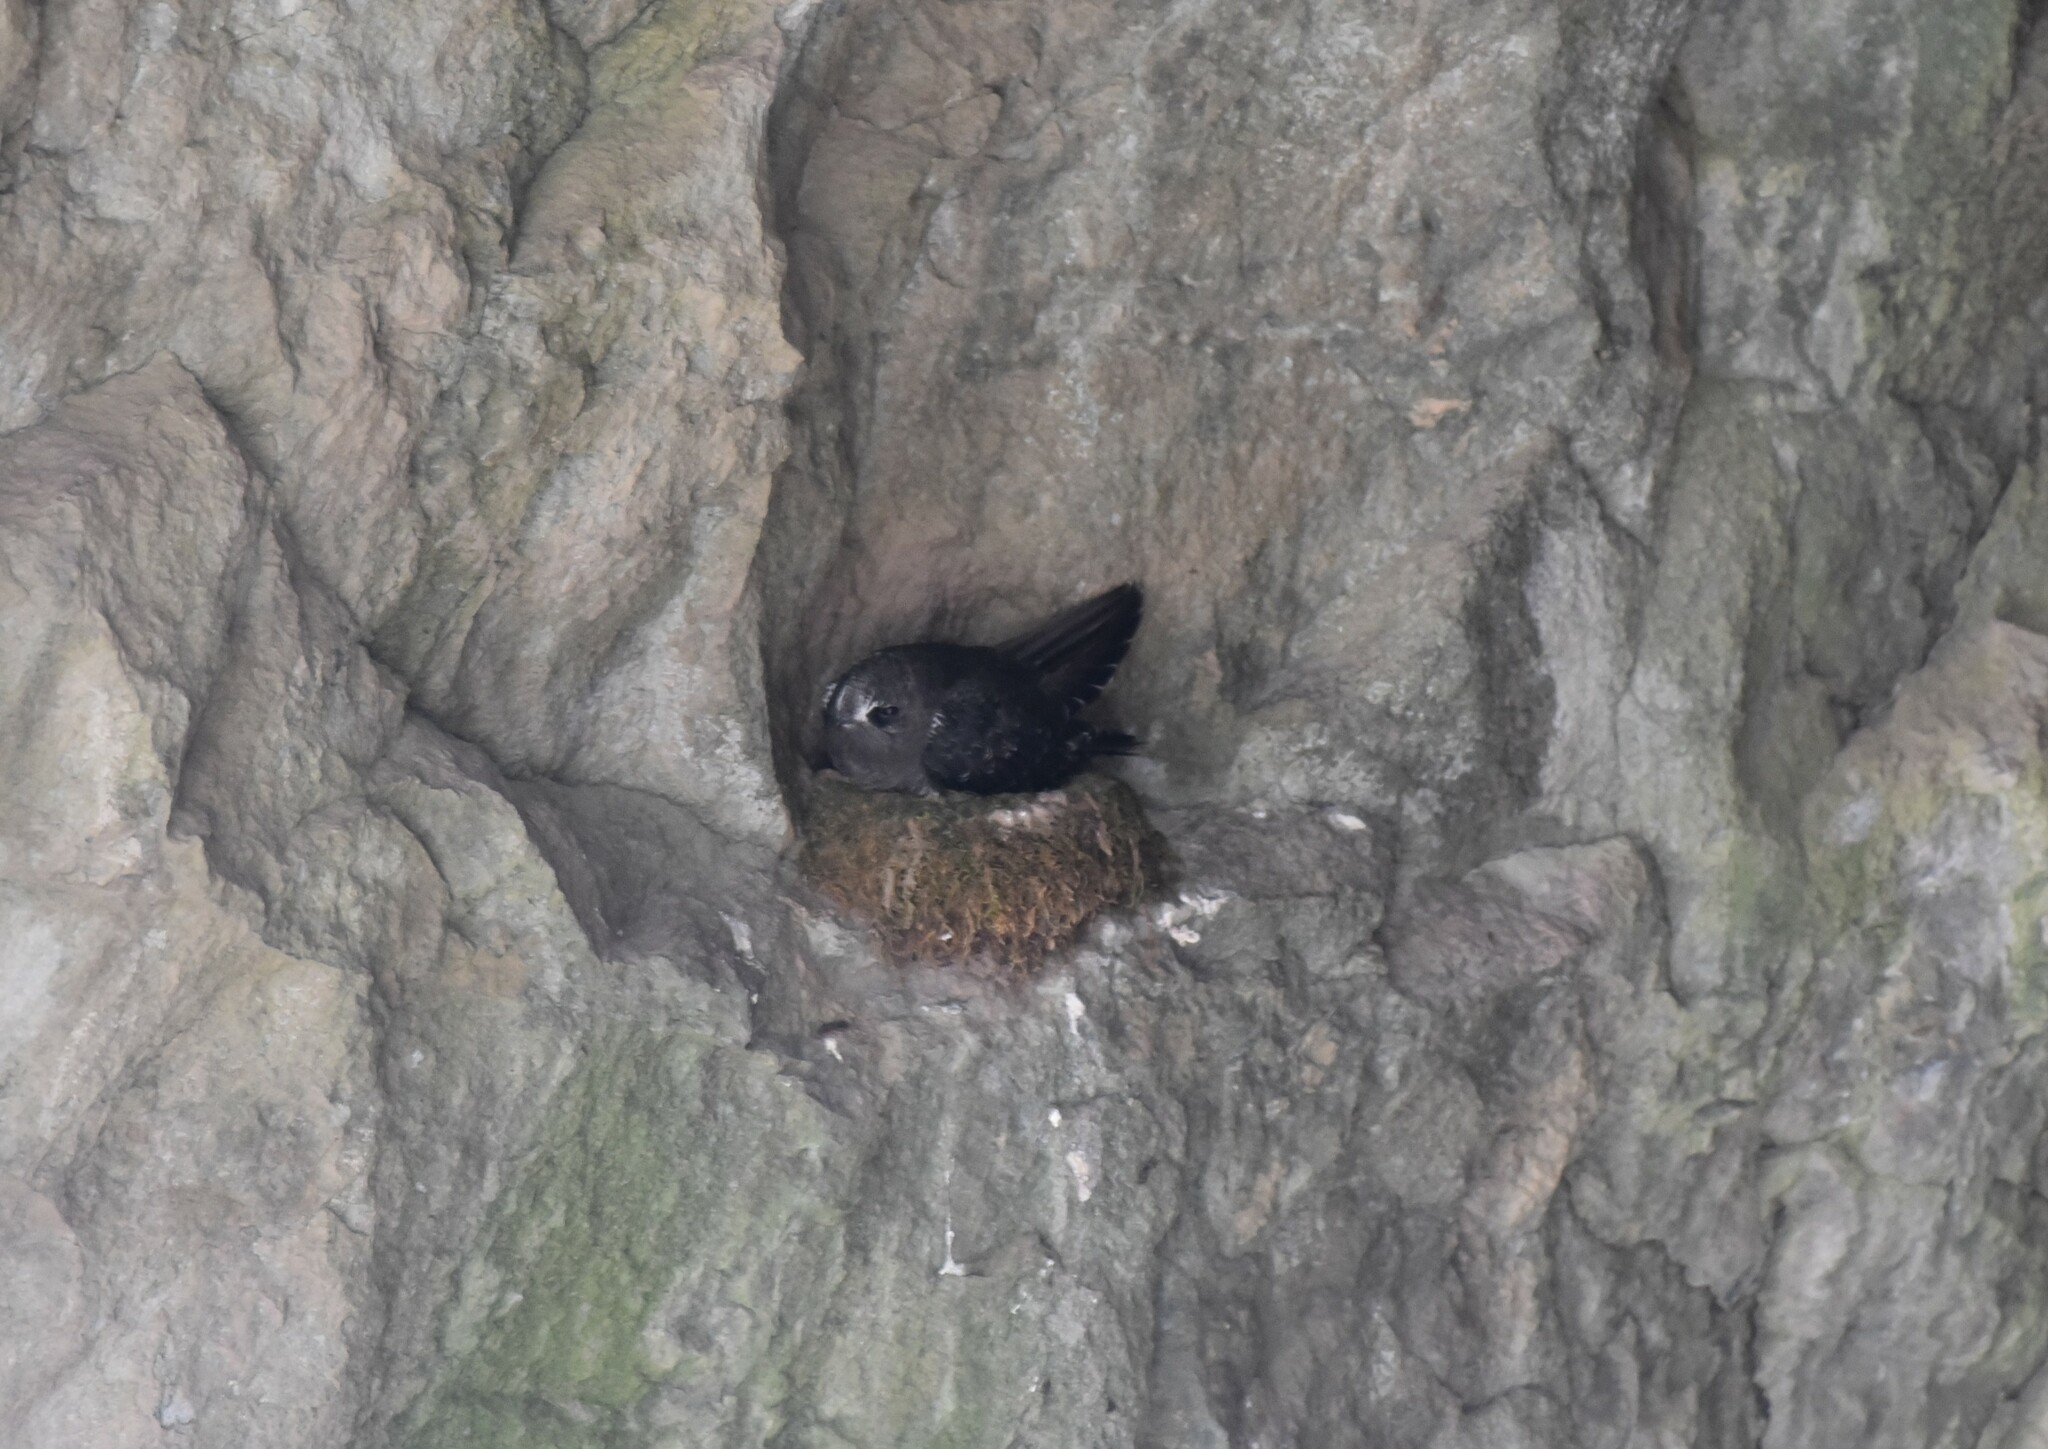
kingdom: Animalia
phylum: Chordata
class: Aves
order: Apodiformes
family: Apodidae
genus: Cypseloides
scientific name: Cypseloides niger
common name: Black swift
